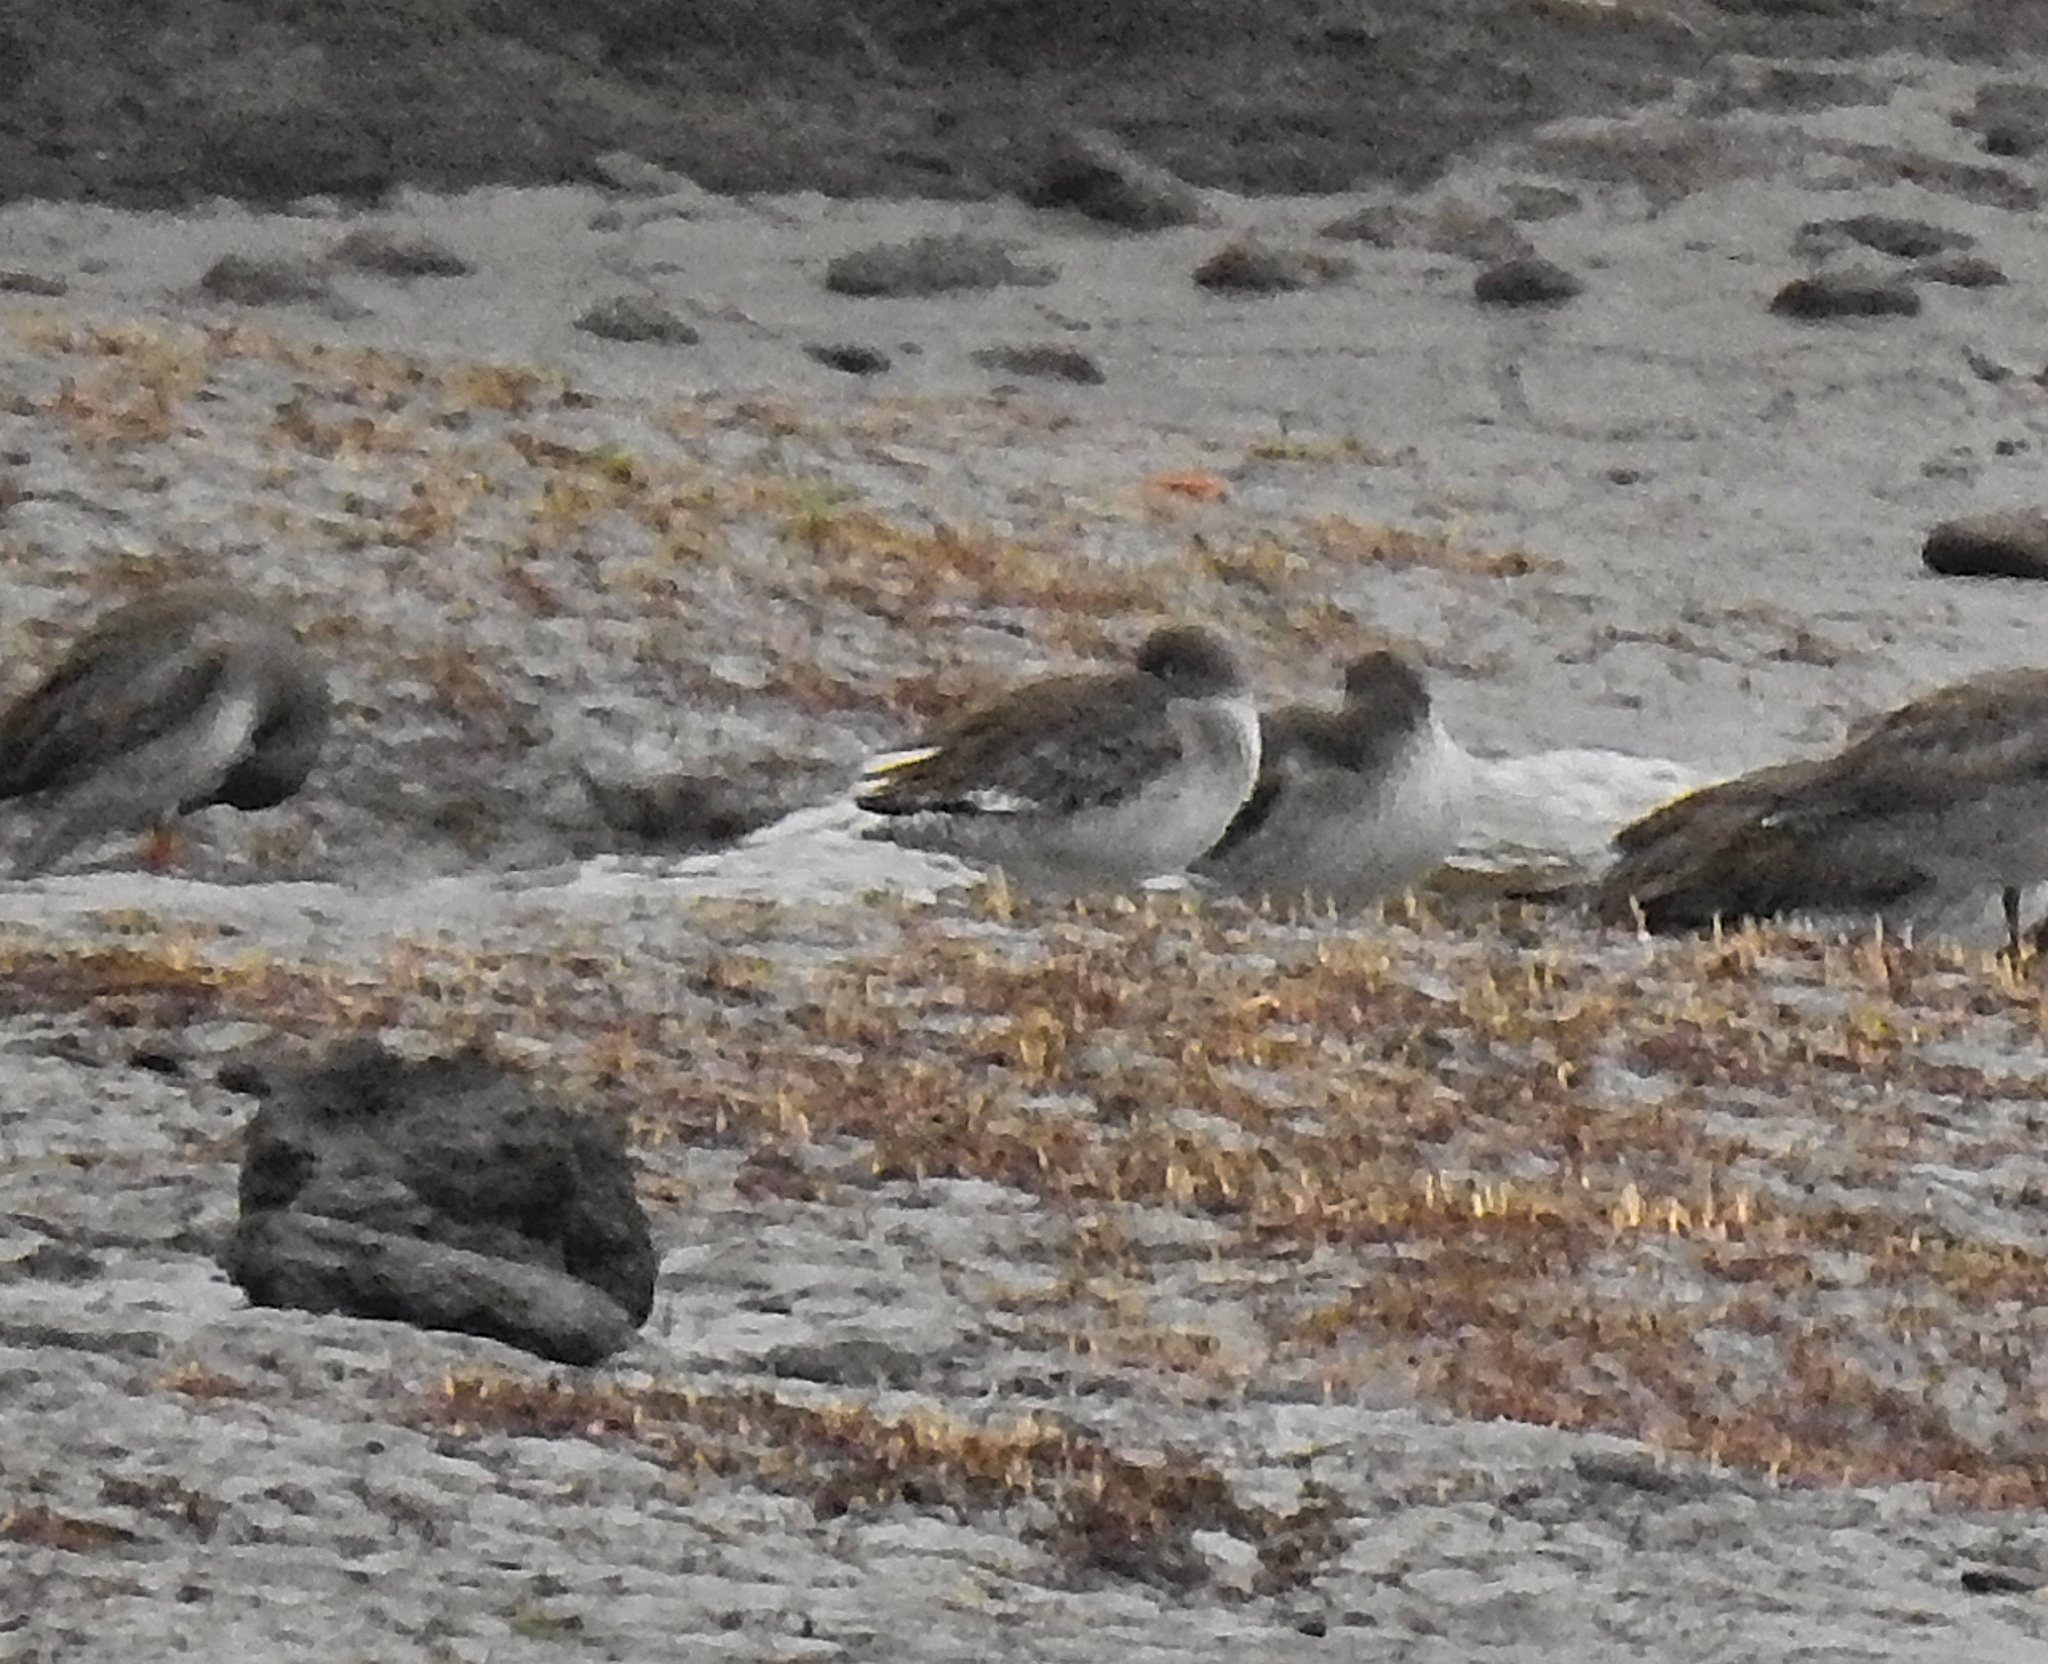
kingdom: Animalia
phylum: Chordata
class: Aves
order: Charadriiformes
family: Scolopacidae
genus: Tringa
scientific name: Tringa totanus
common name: Common redshank
